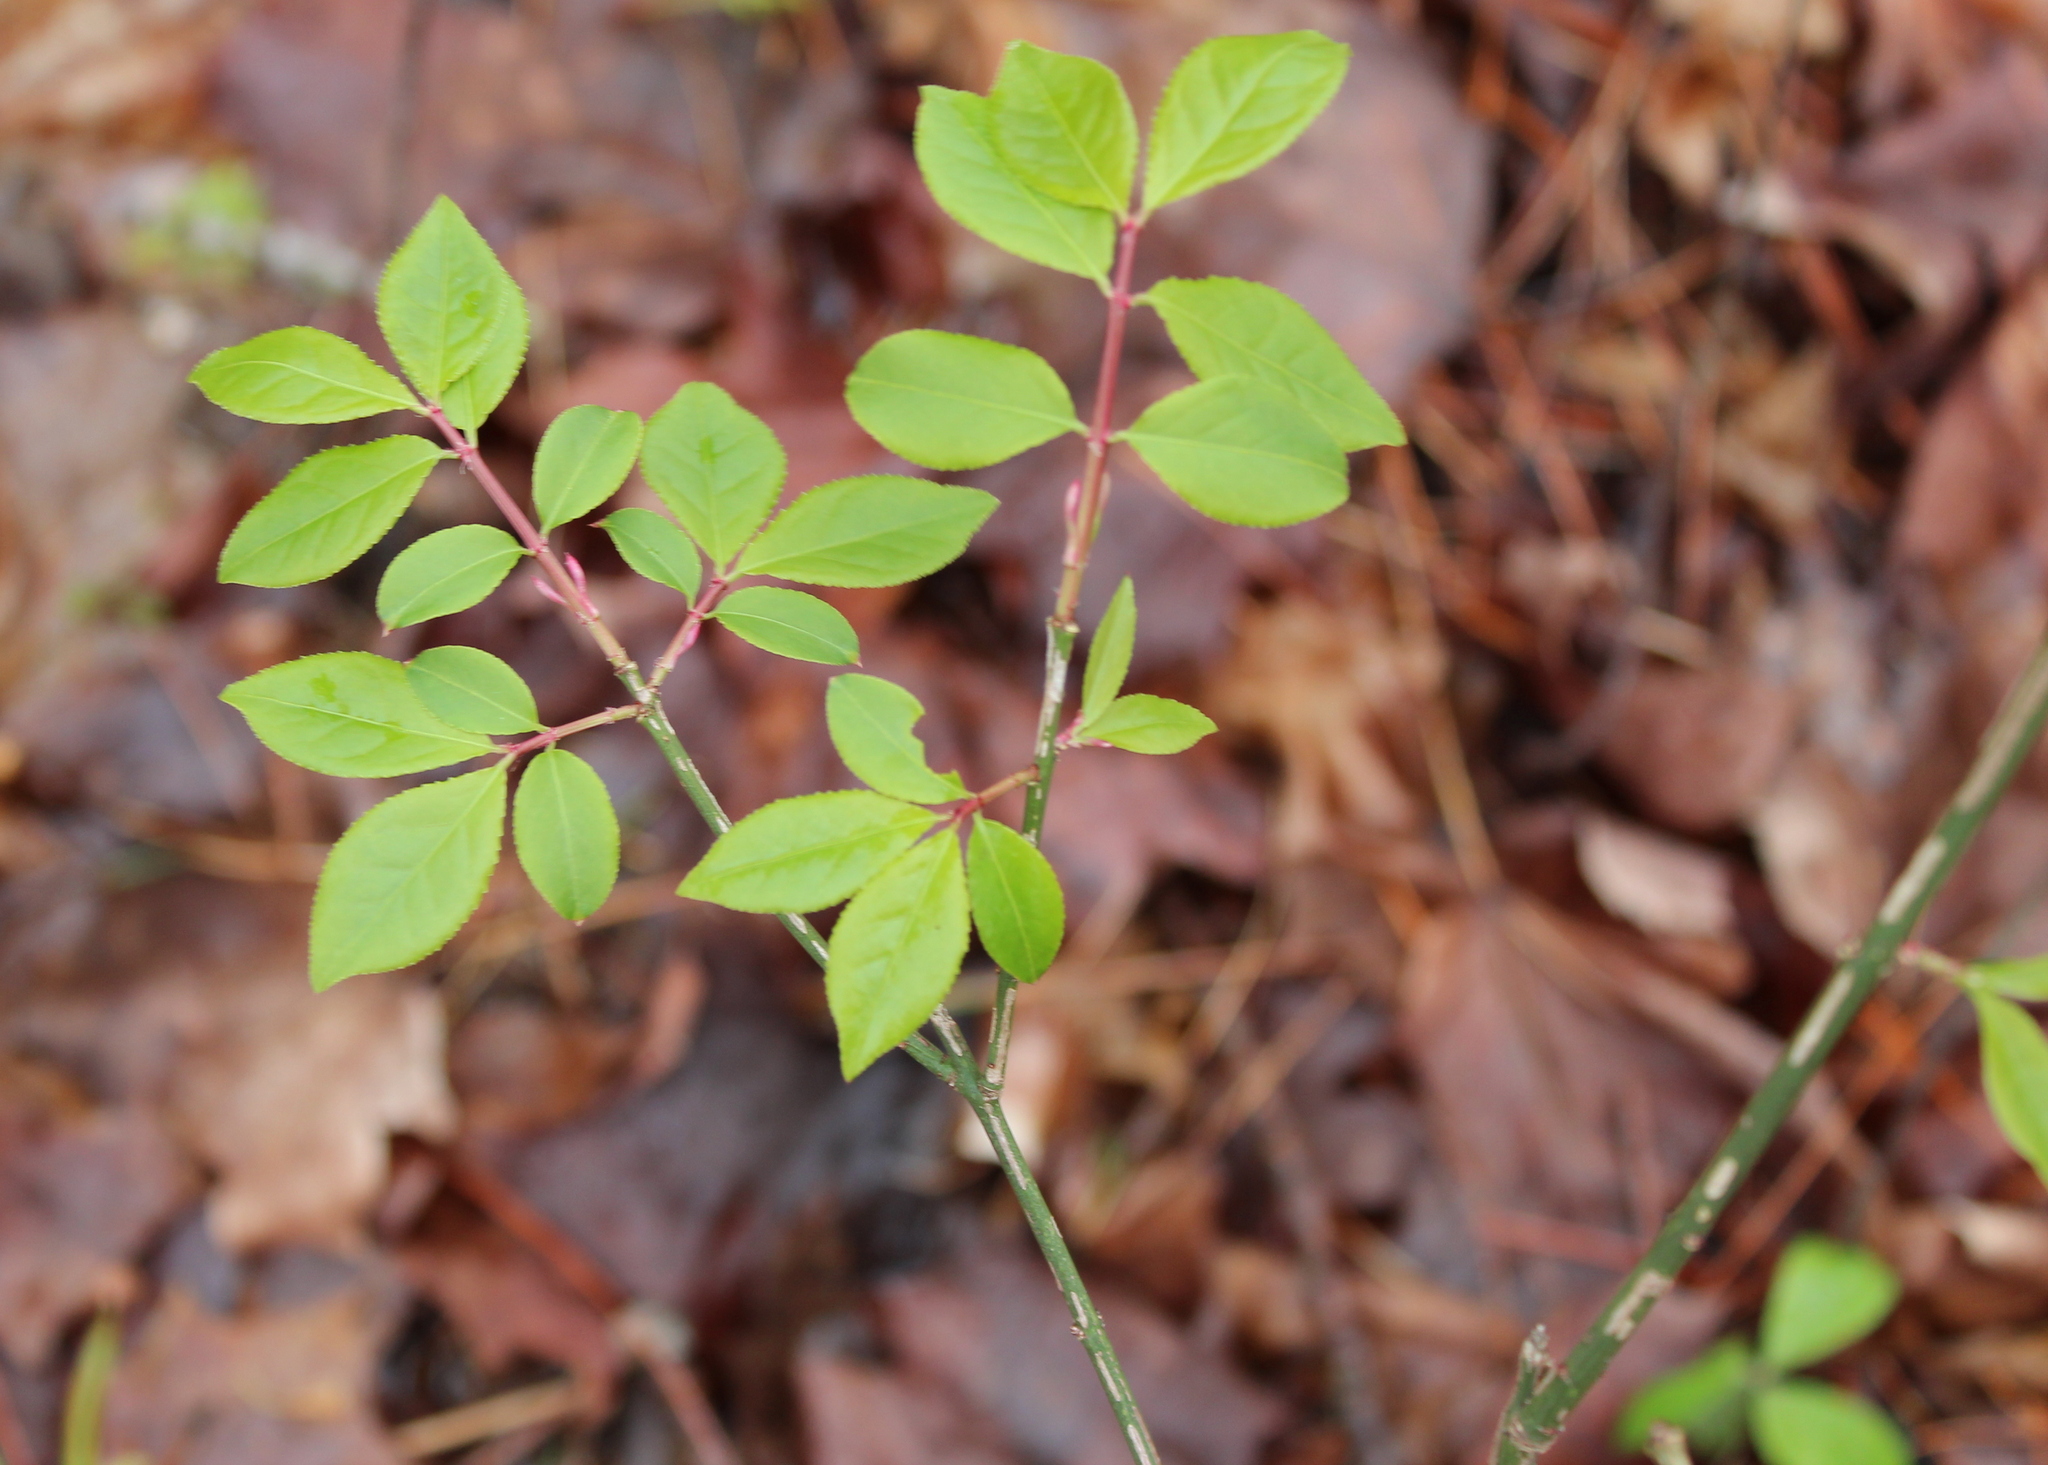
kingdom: Plantae
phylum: Tracheophyta
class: Magnoliopsida
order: Celastrales
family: Celastraceae
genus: Euonymus
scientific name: Euonymus alatus
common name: Winged euonymus
